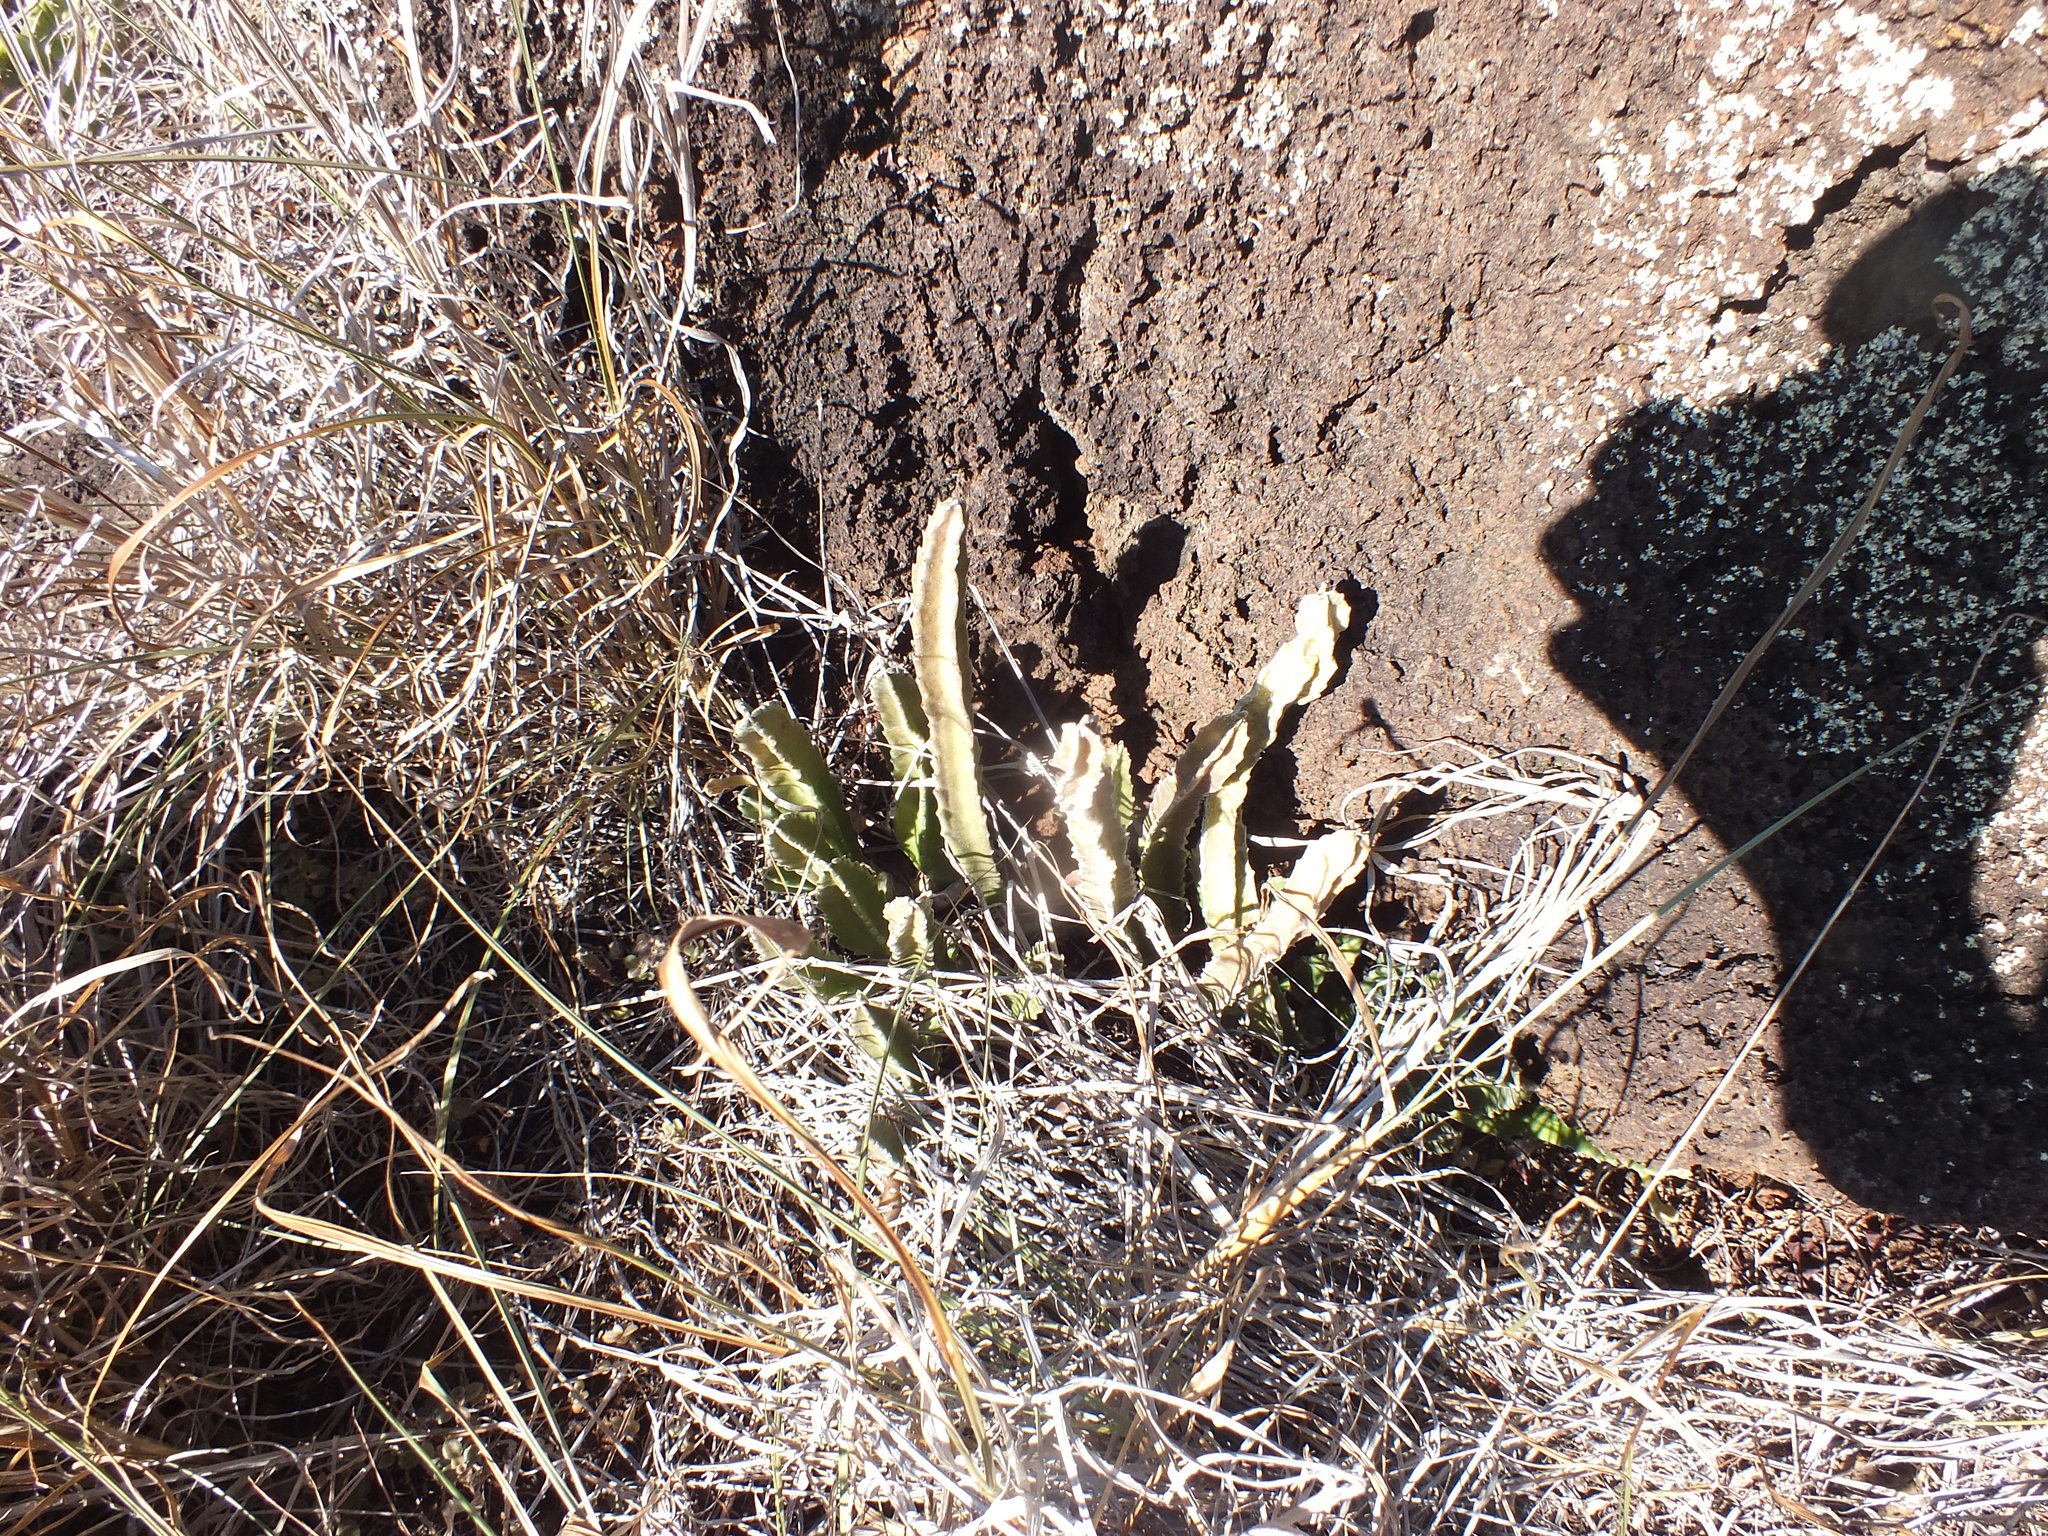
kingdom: Plantae
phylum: Tracheophyta
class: Magnoliopsida
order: Gentianales
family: Apocynaceae
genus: Ceropegia
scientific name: Ceropegia gigantea
